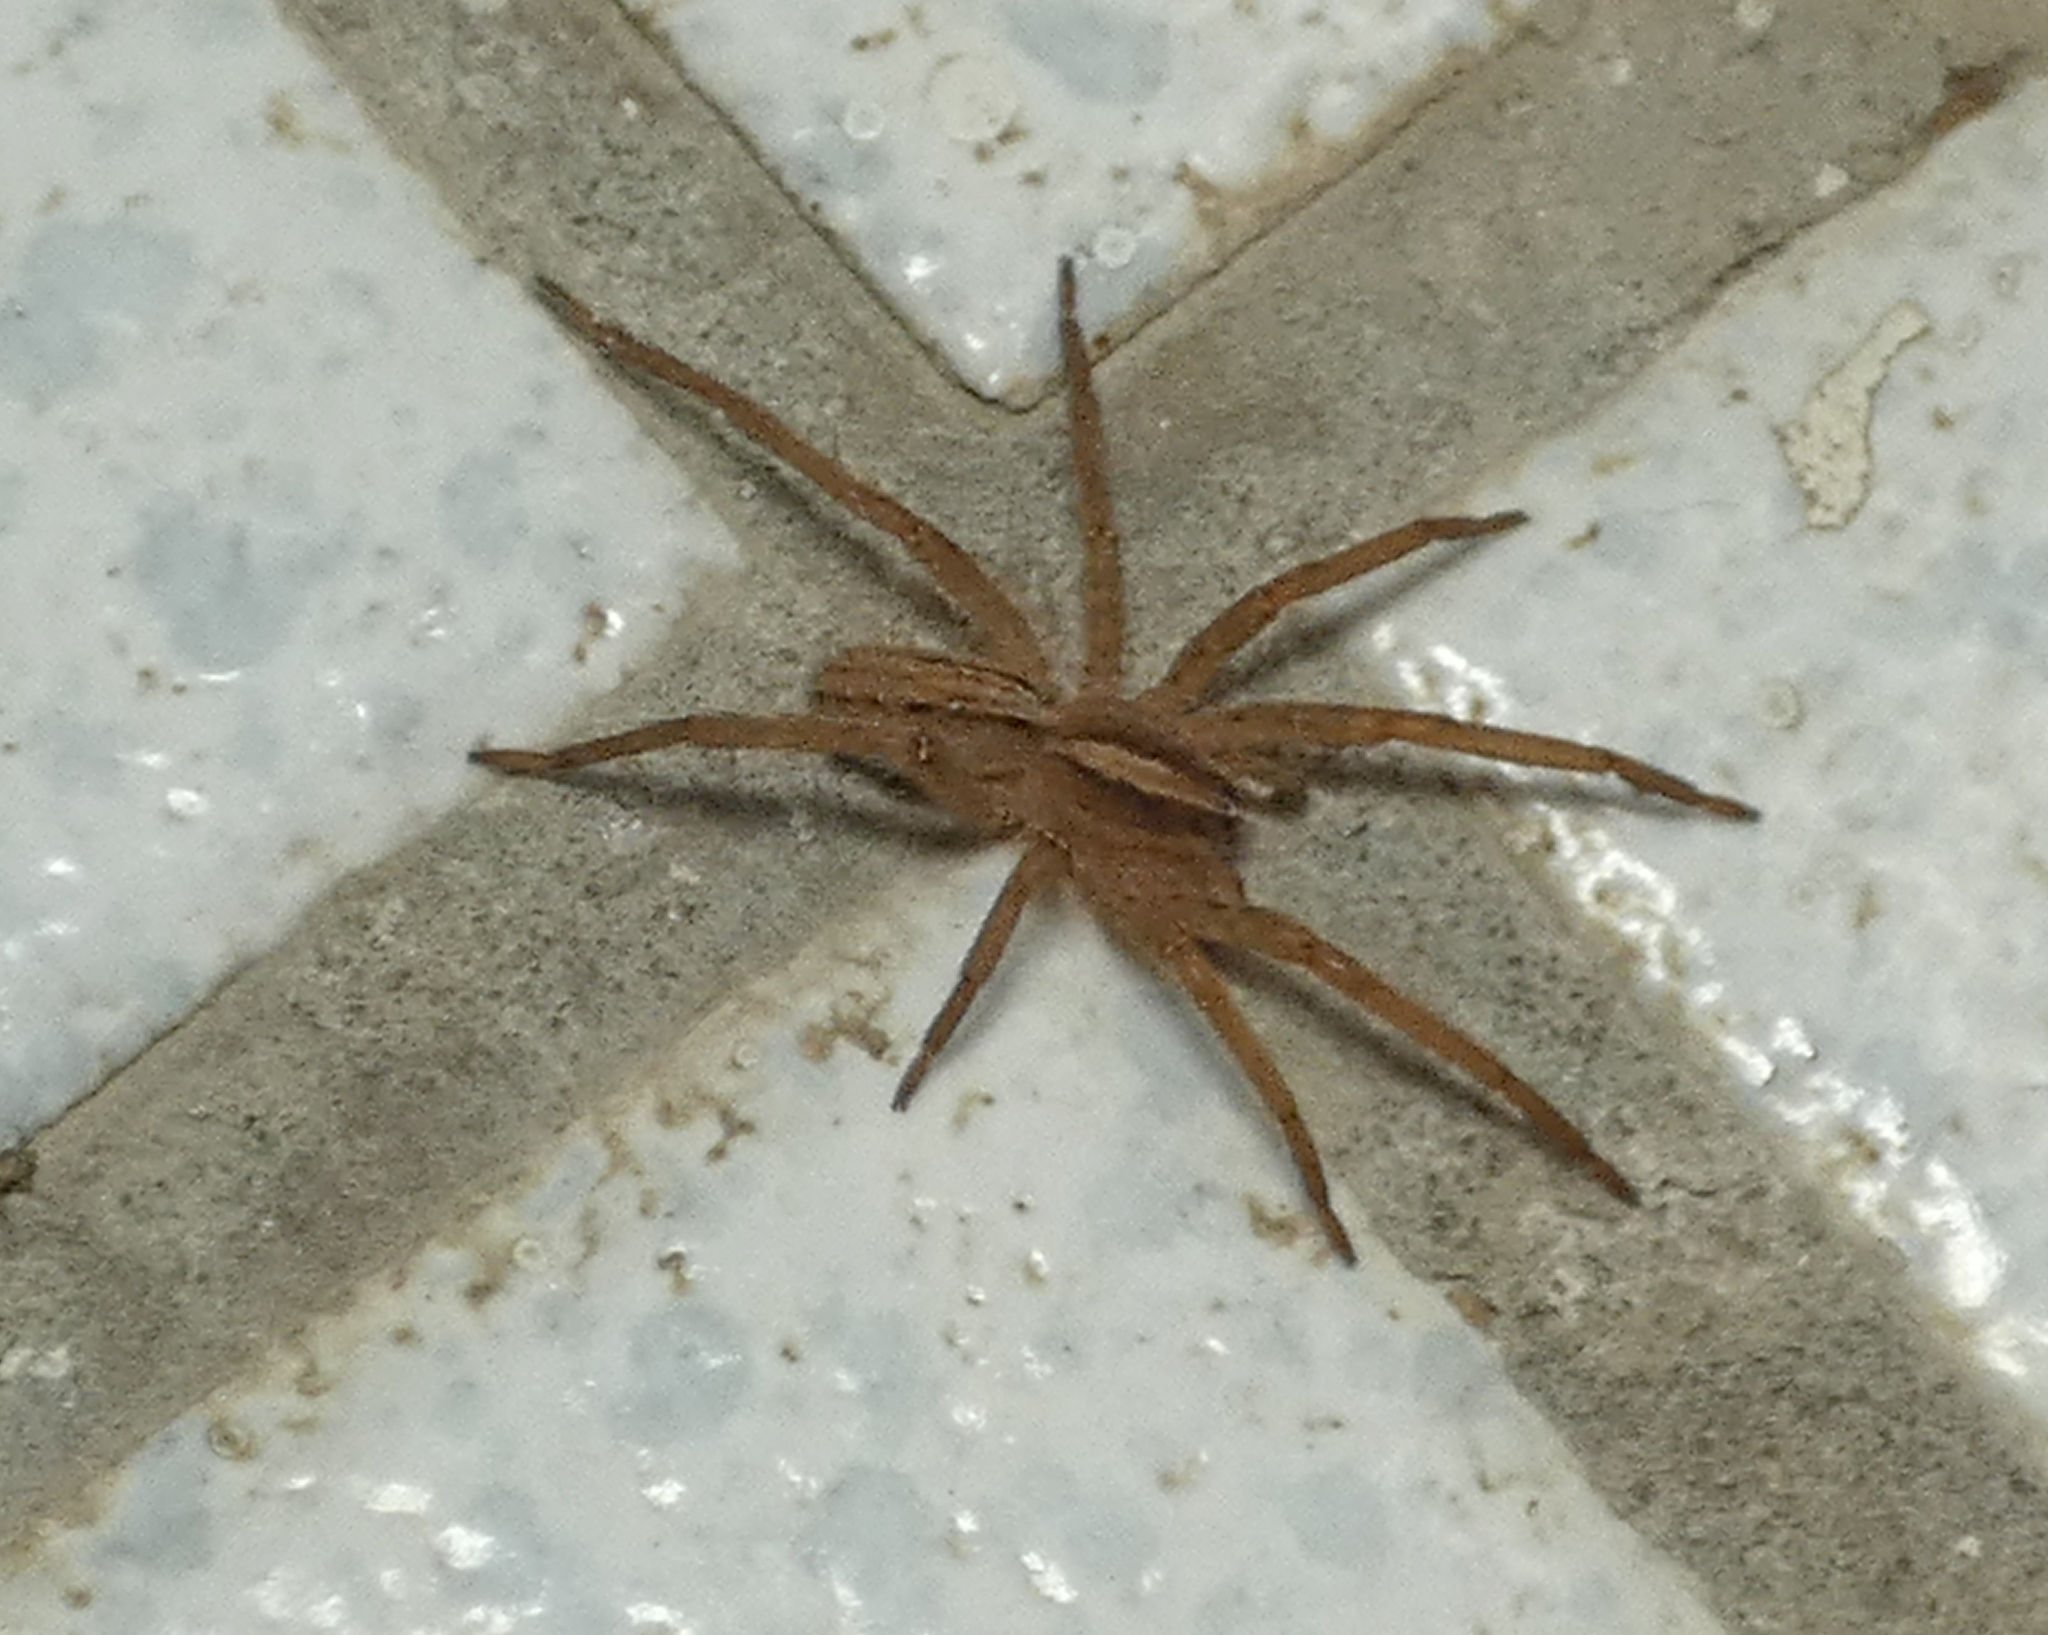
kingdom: Animalia
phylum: Arthropoda
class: Arachnida
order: Araneae
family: Ctenidae
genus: Parabatinga
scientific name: Parabatinga brevipes
